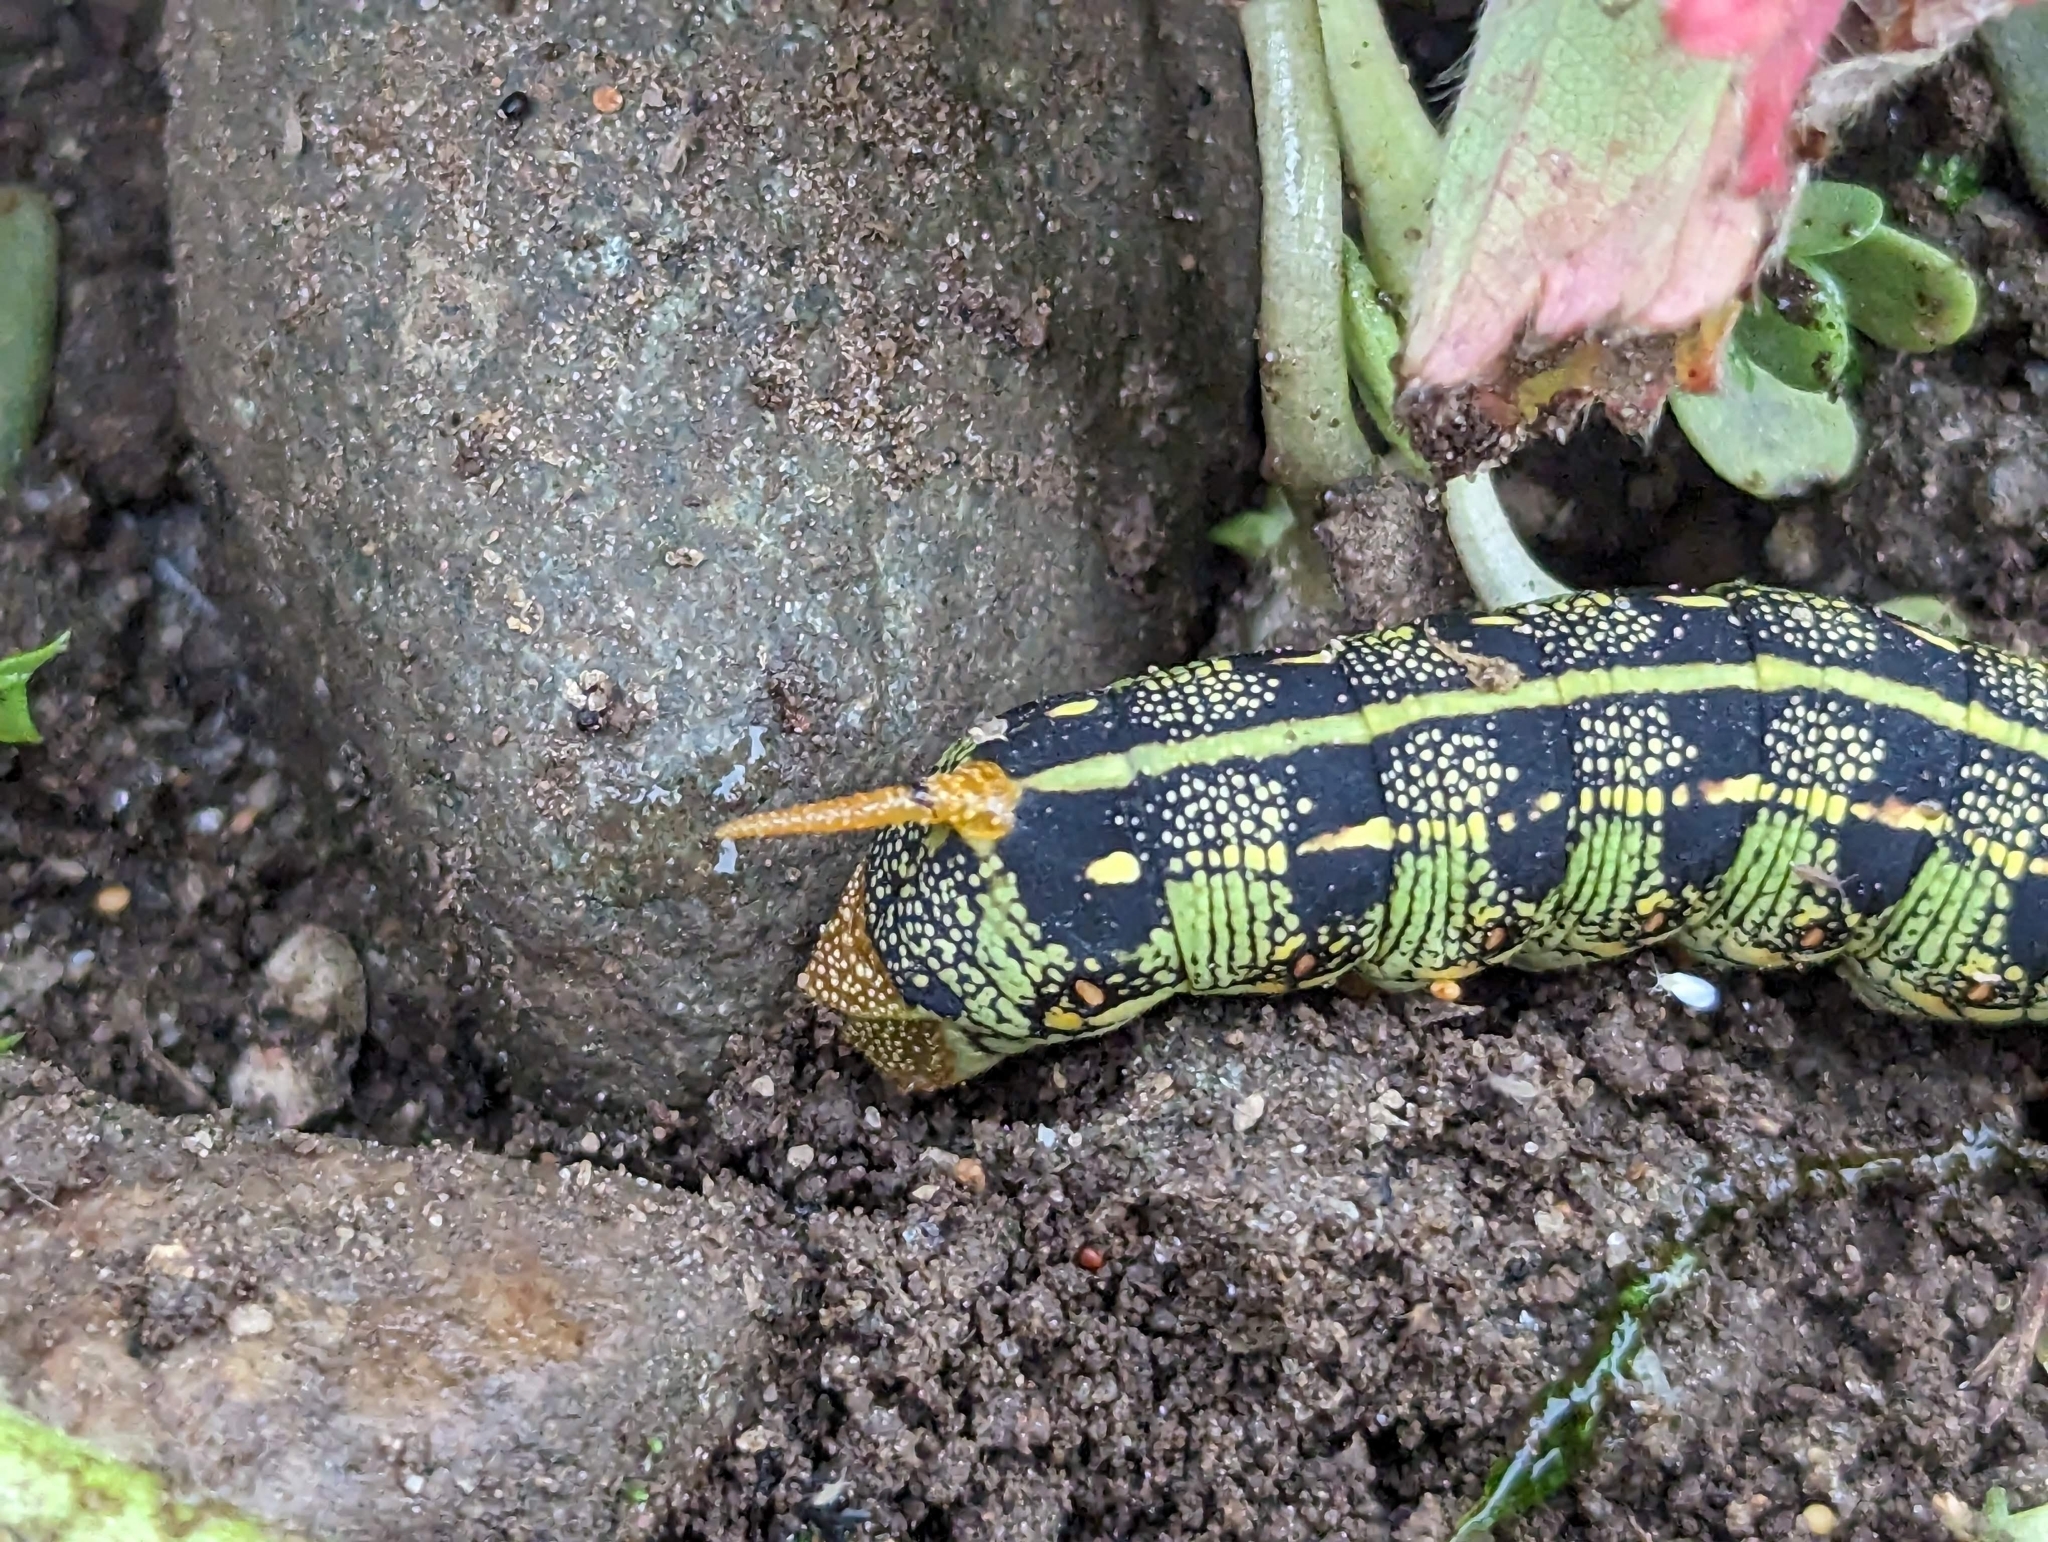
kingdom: Animalia
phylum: Arthropoda
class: Insecta
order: Lepidoptera
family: Sphingidae
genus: Hyles
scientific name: Hyles lineata
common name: White-lined sphinx
